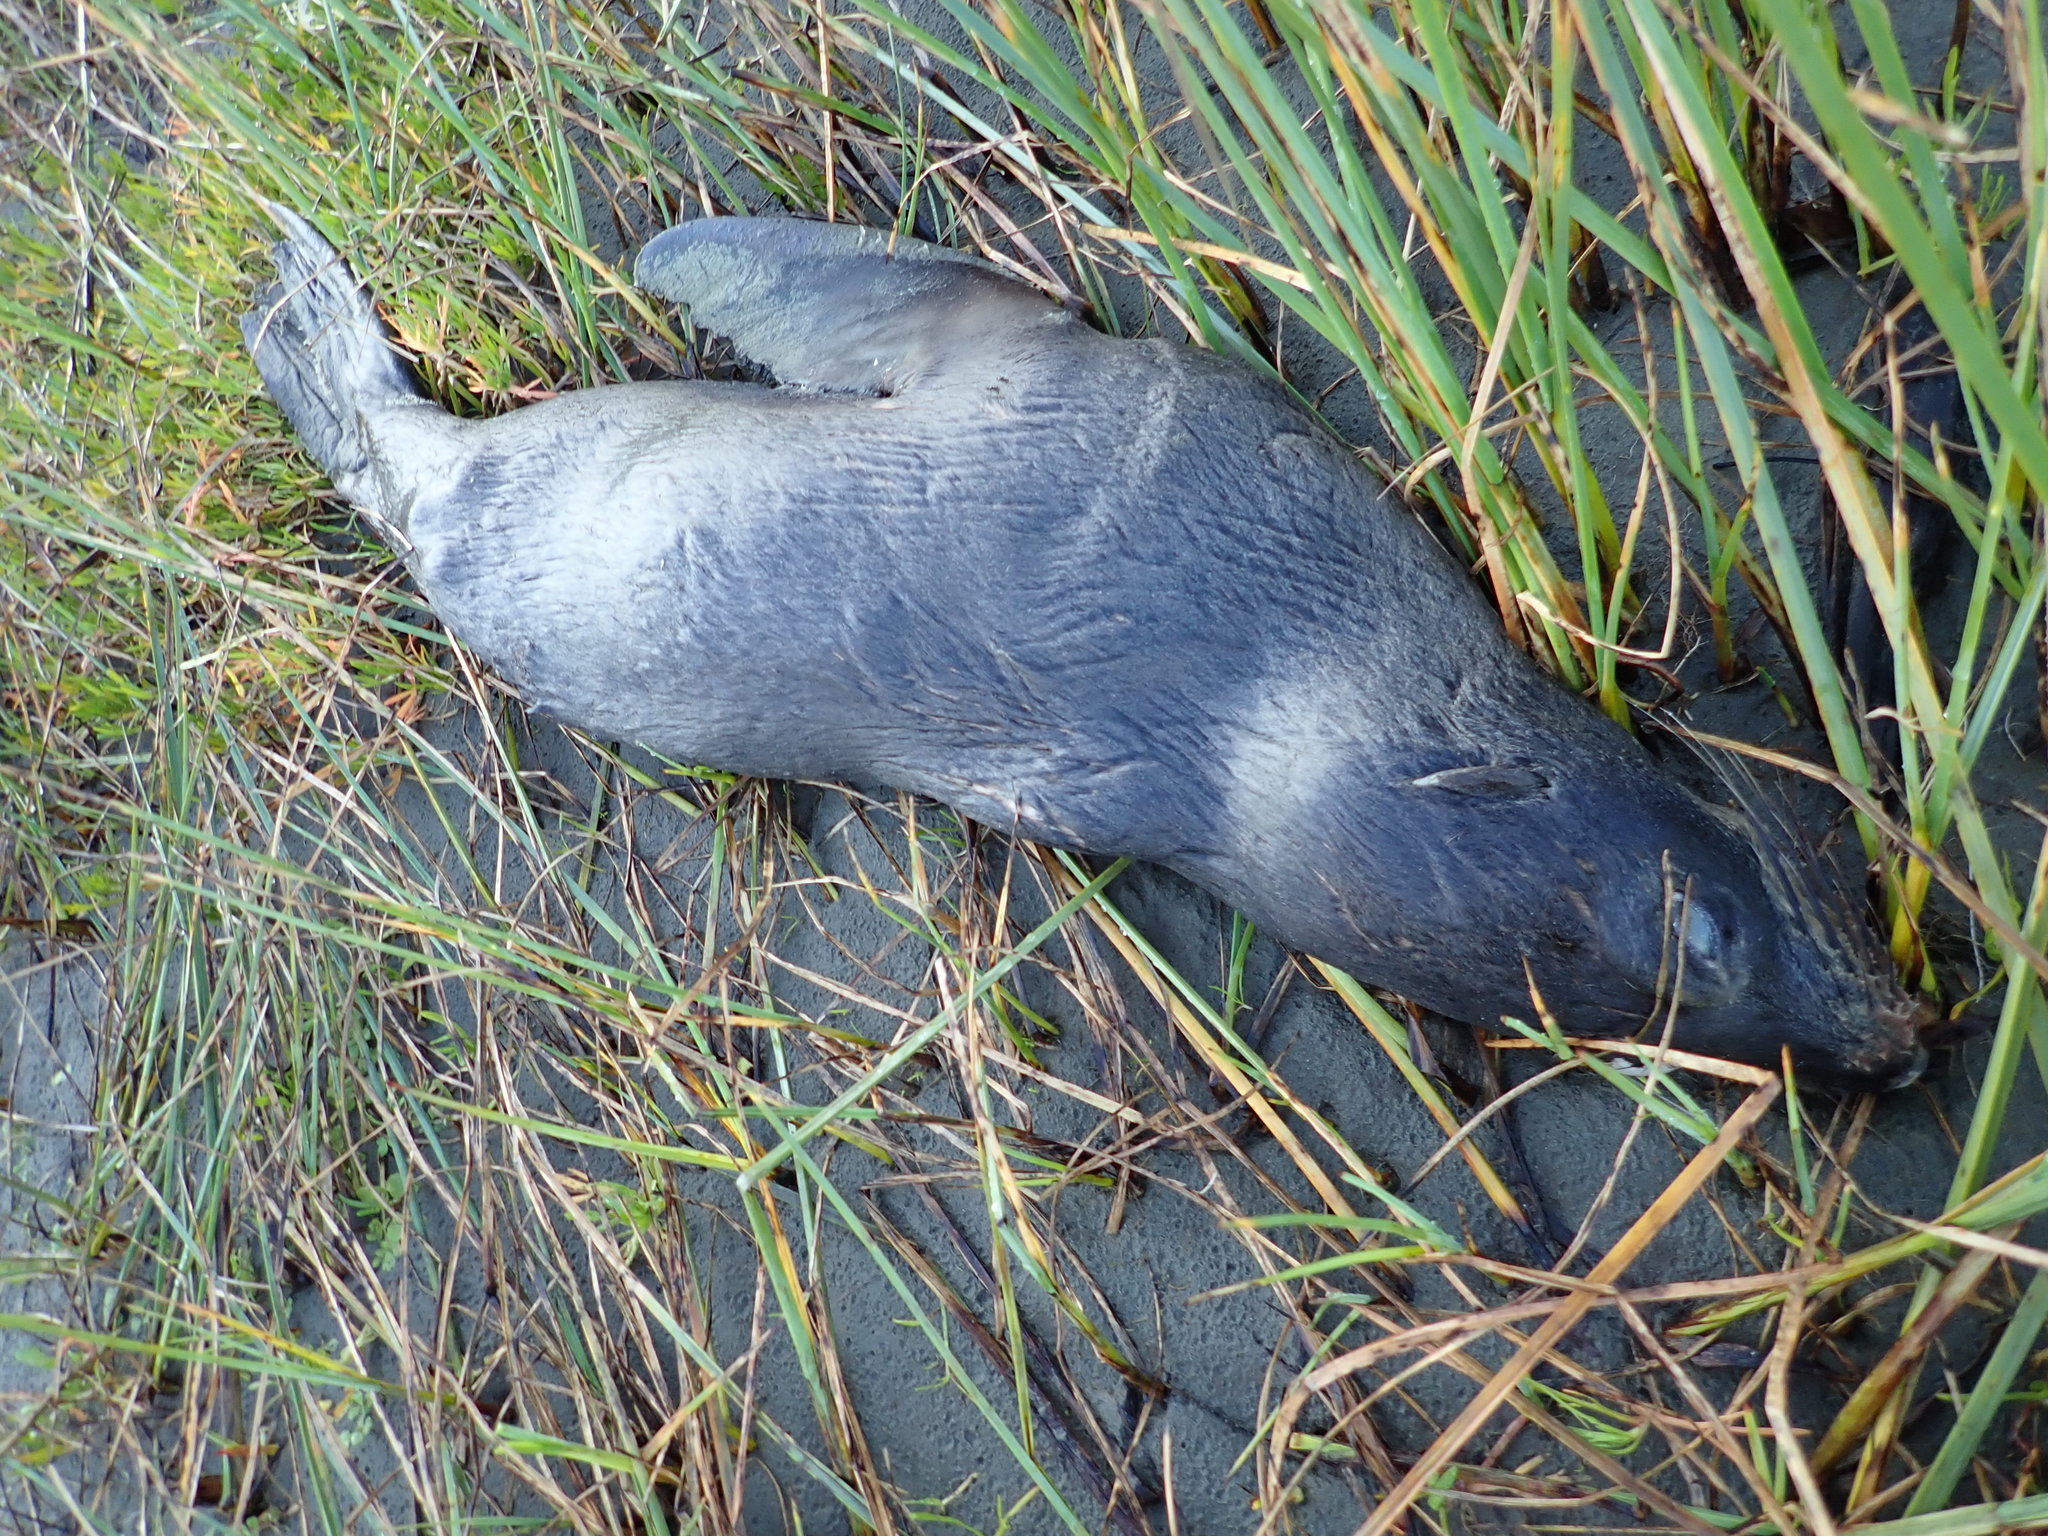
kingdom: Plantae
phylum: Tracheophyta
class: Magnoliopsida
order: Fabales
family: Fabaceae
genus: Acacia
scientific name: Acacia longifolia
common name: Sydney golden wattle
